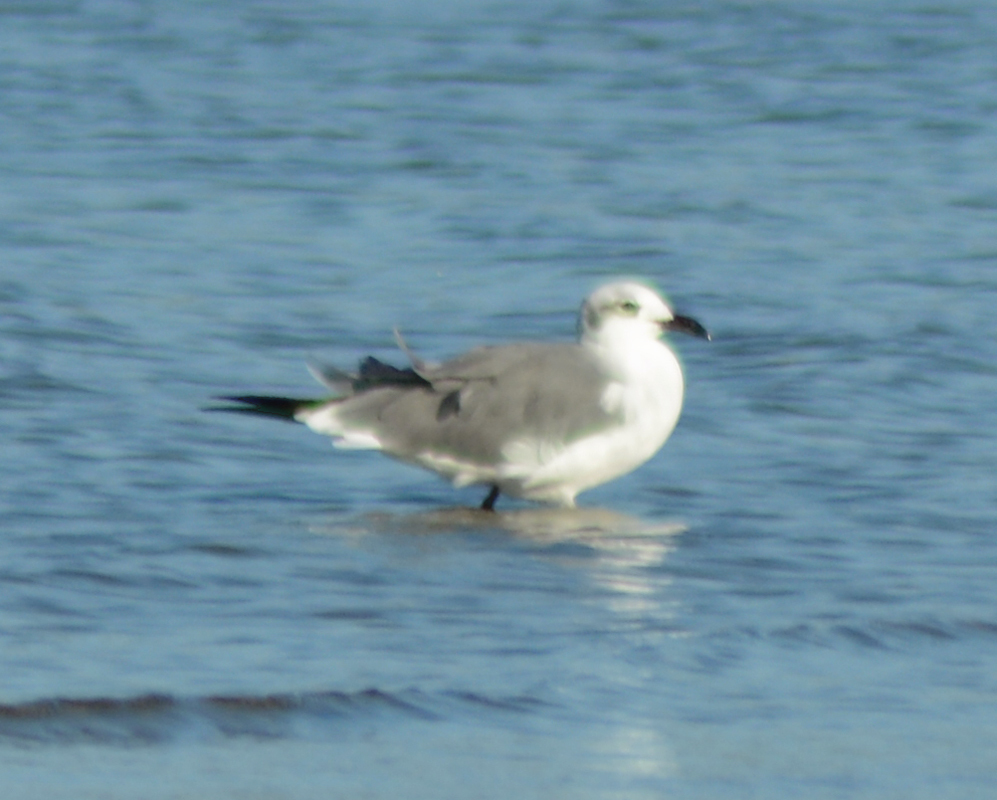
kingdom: Animalia
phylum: Chordata
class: Aves
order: Charadriiformes
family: Laridae
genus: Leucophaeus
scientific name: Leucophaeus atricilla
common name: Laughing gull
